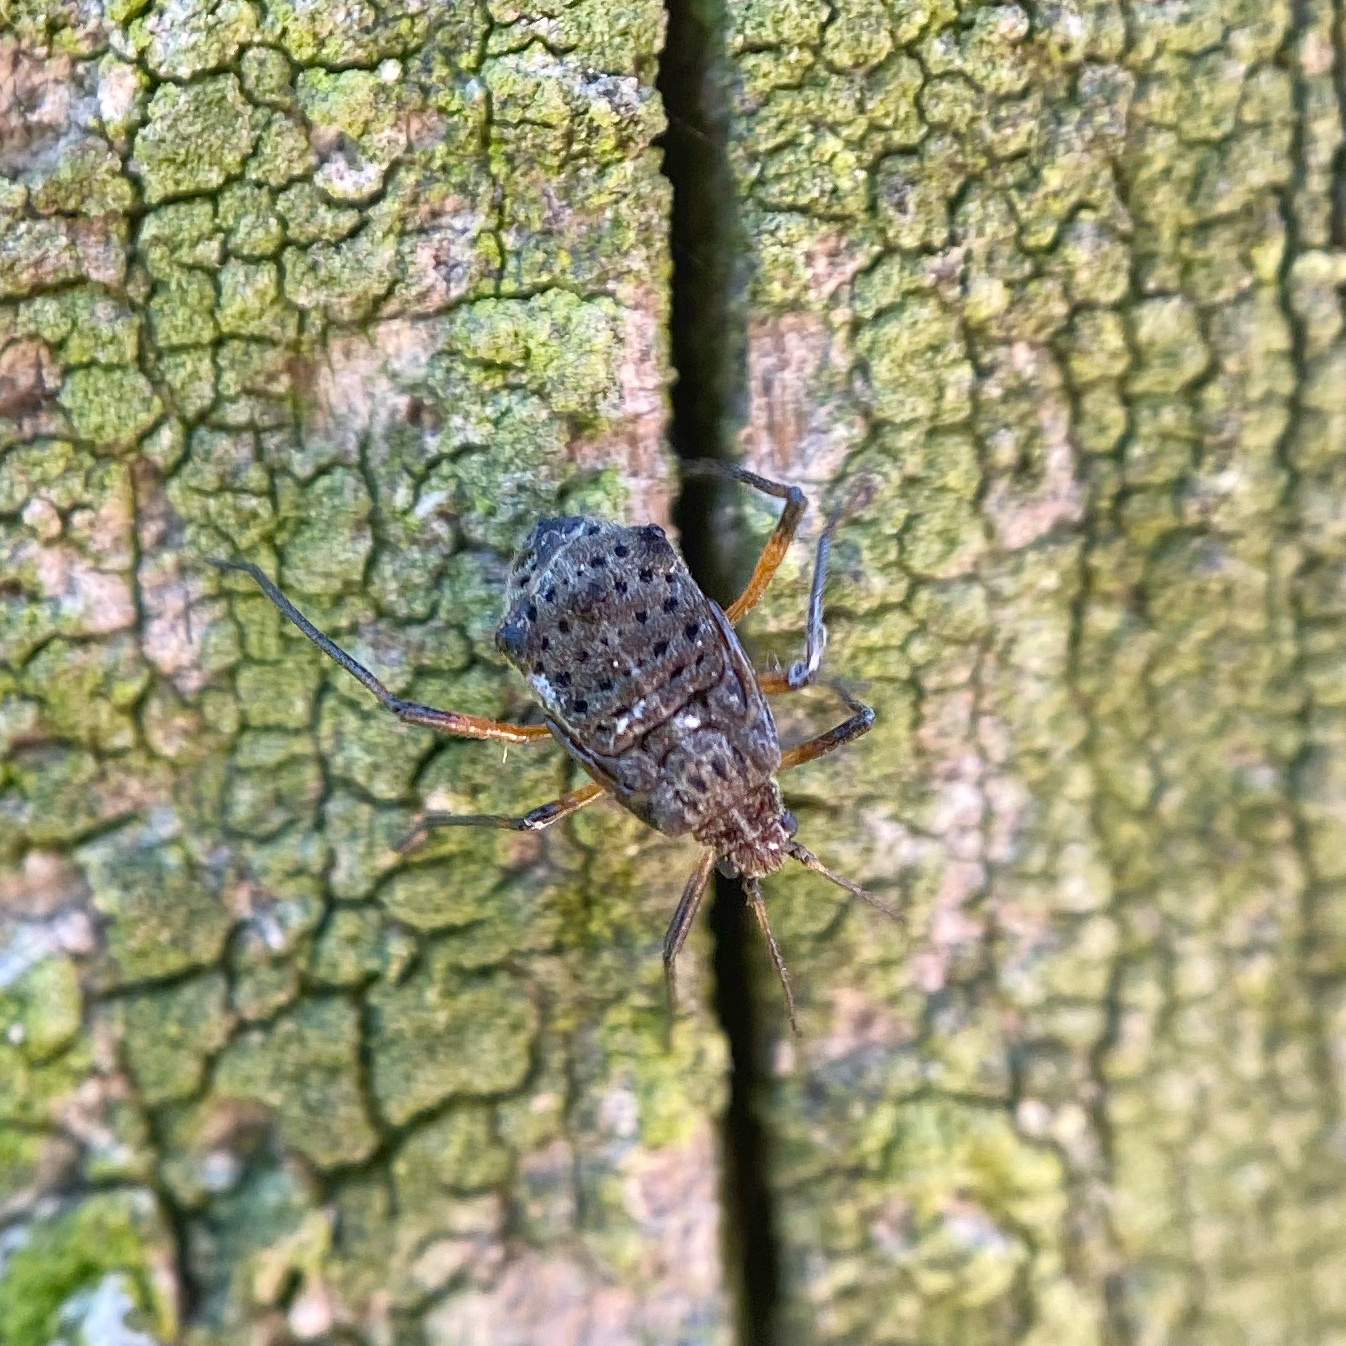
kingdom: Animalia
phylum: Arthropoda
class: Insecta
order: Hemiptera
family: Aphididae
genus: Tuberolachnus
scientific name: Tuberolachnus salignus
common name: Giant willow aphid
